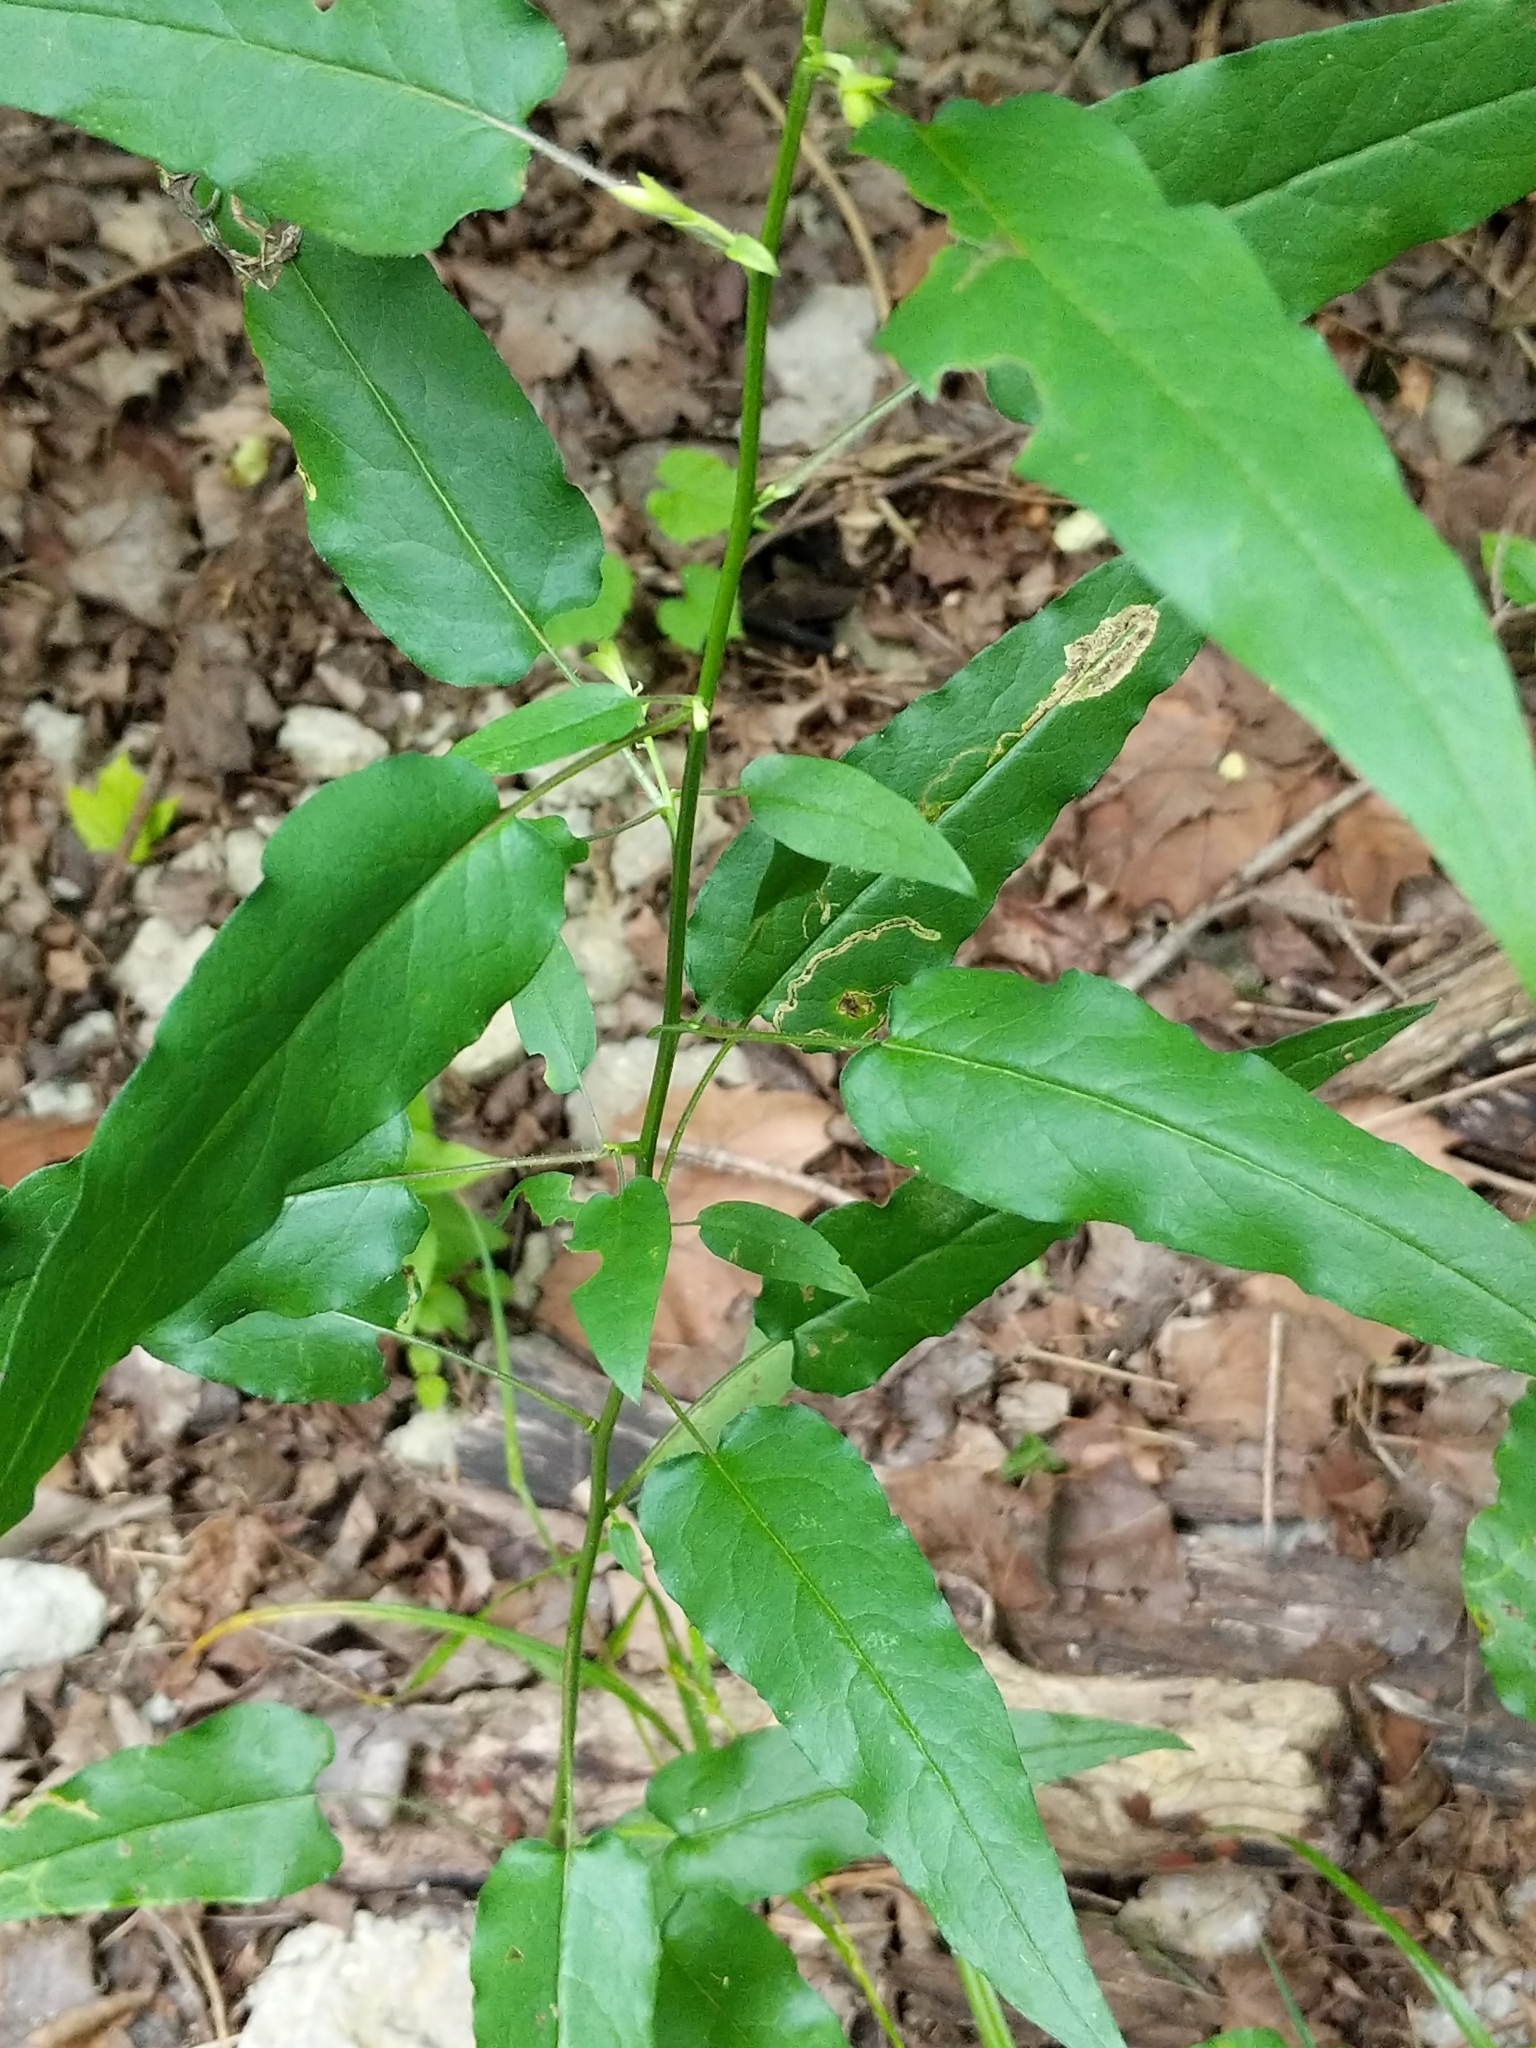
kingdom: Animalia
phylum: Arthropoda
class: Insecta
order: Diptera
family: Agromyzidae
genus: Ophiomyia
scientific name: Ophiomyia carolinensis
